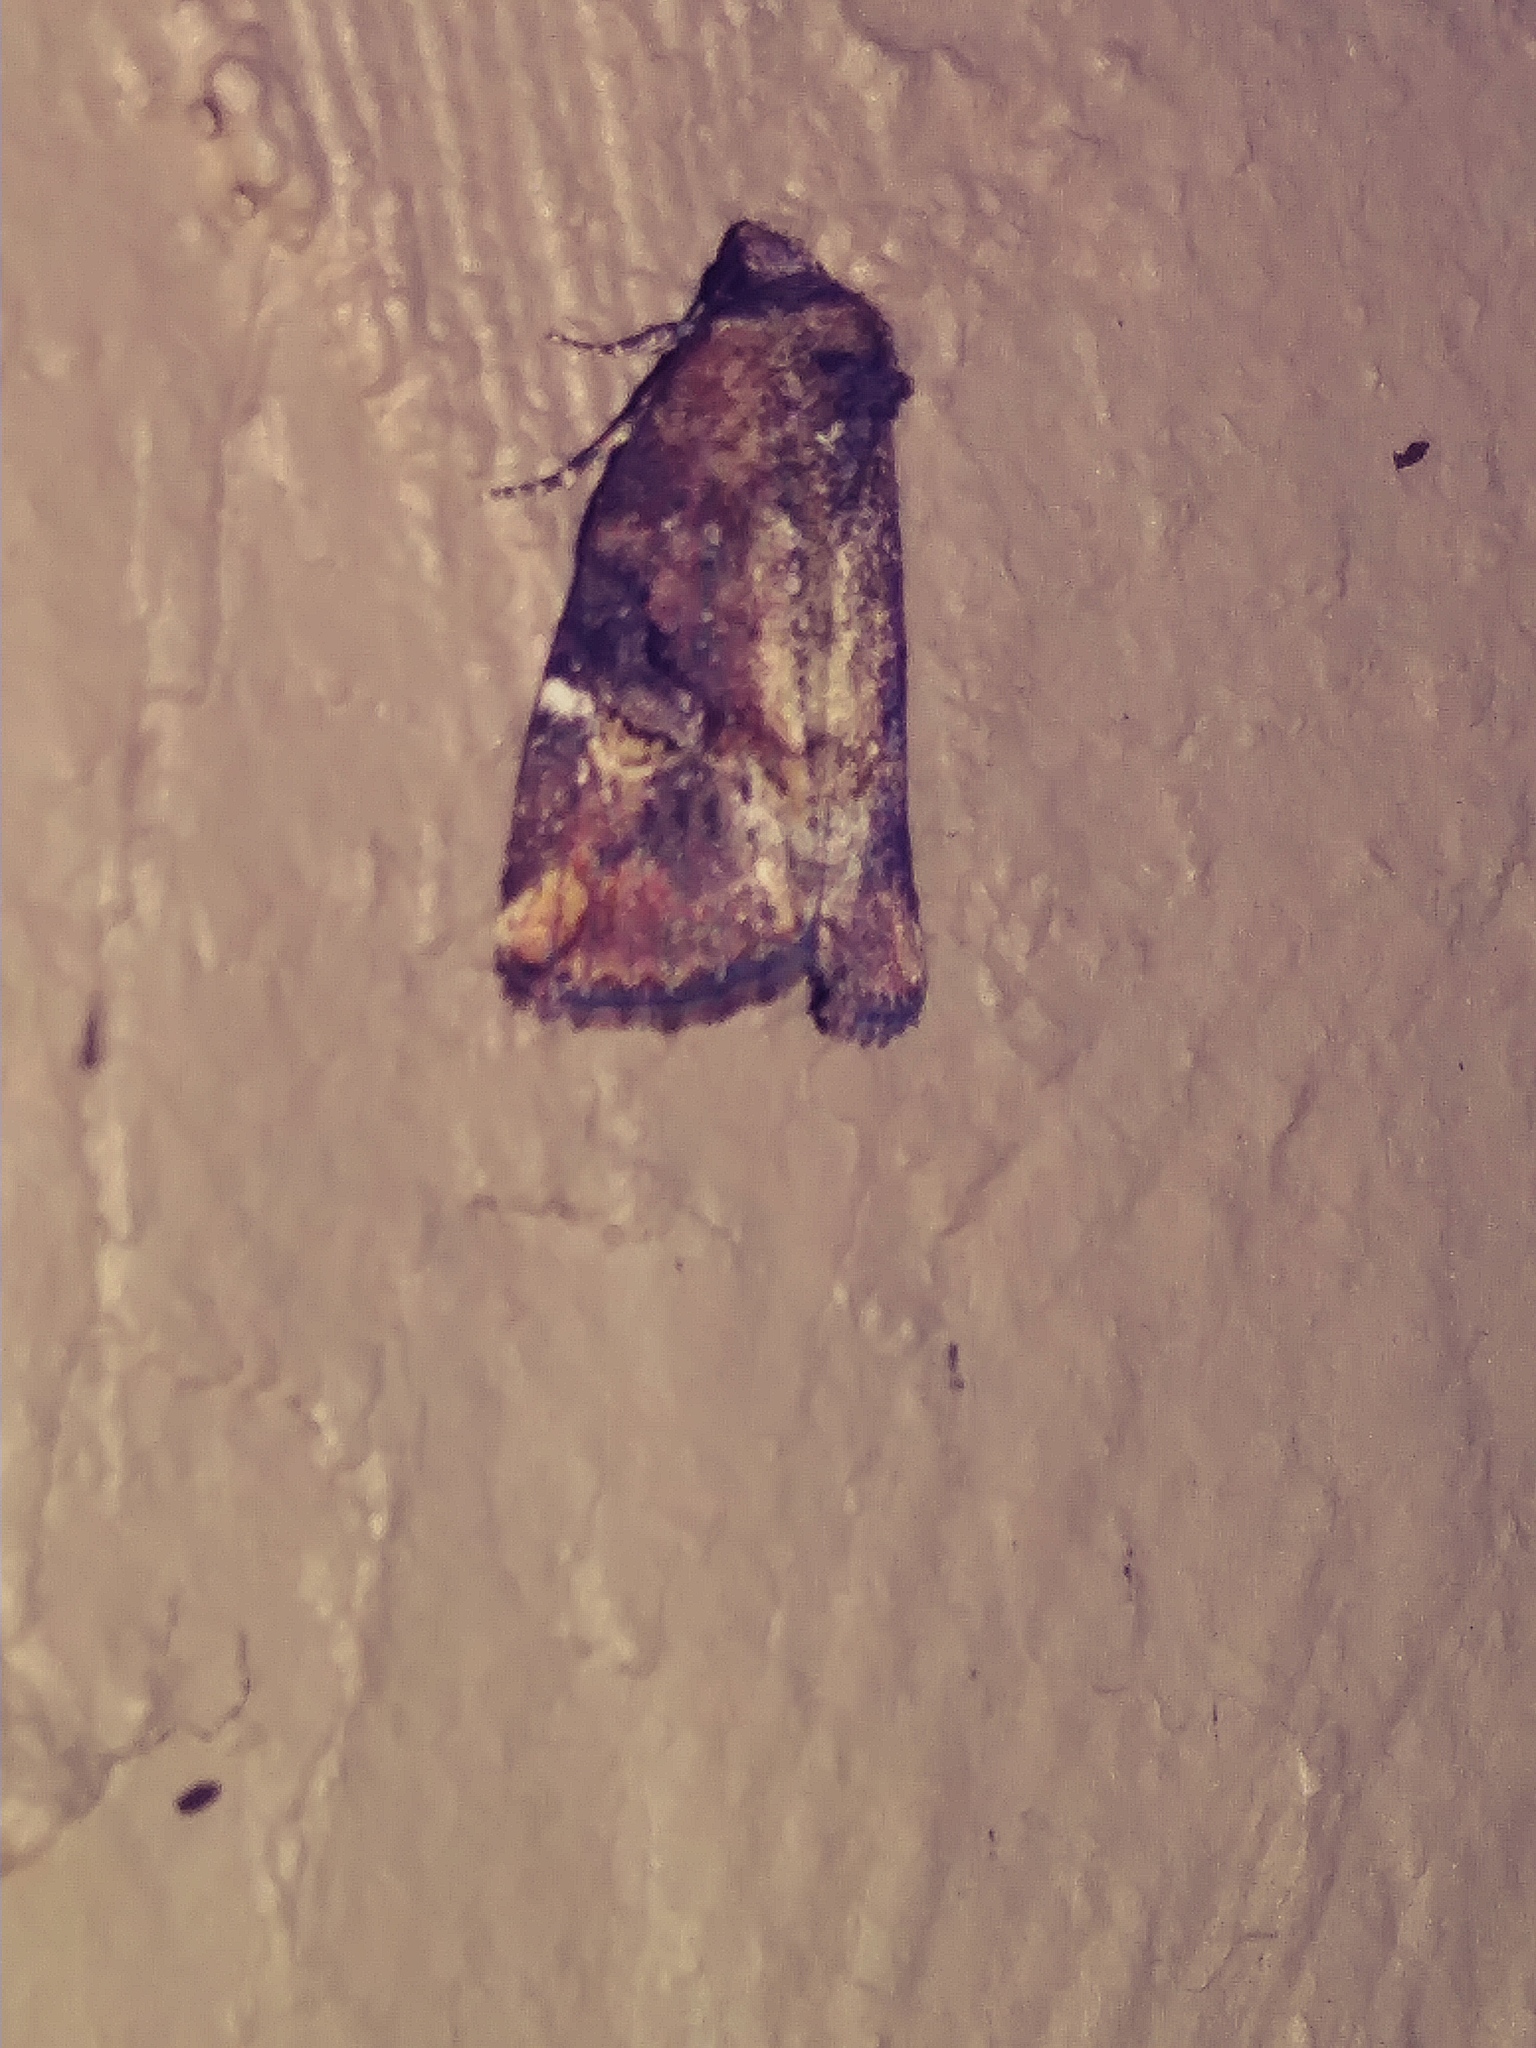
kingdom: Animalia
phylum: Arthropoda
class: Insecta
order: Lepidoptera
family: Noctuidae
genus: Elaphria
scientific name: Elaphria versicolor
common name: Fir harlequin
